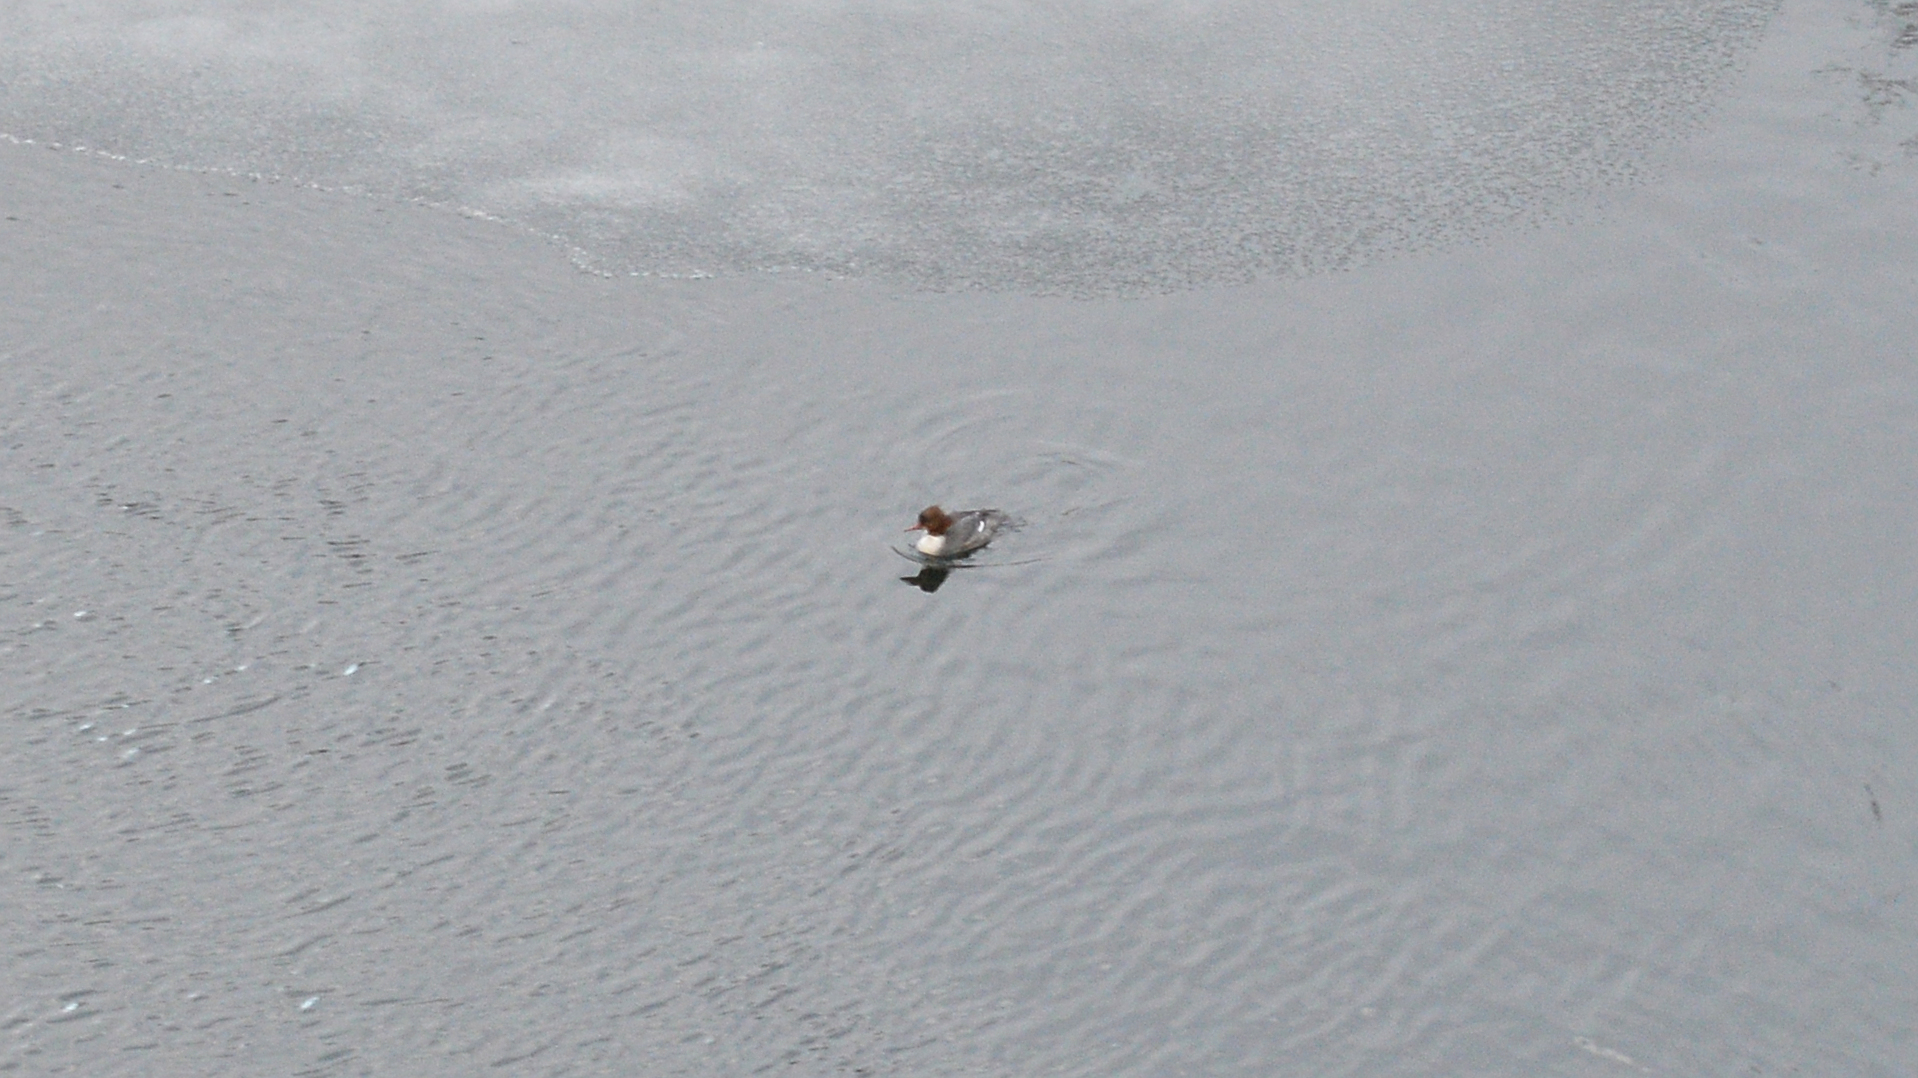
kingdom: Animalia
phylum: Chordata
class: Aves
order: Anseriformes
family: Anatidae
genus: Mergus
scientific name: Mergus merganser
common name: Common merganser
